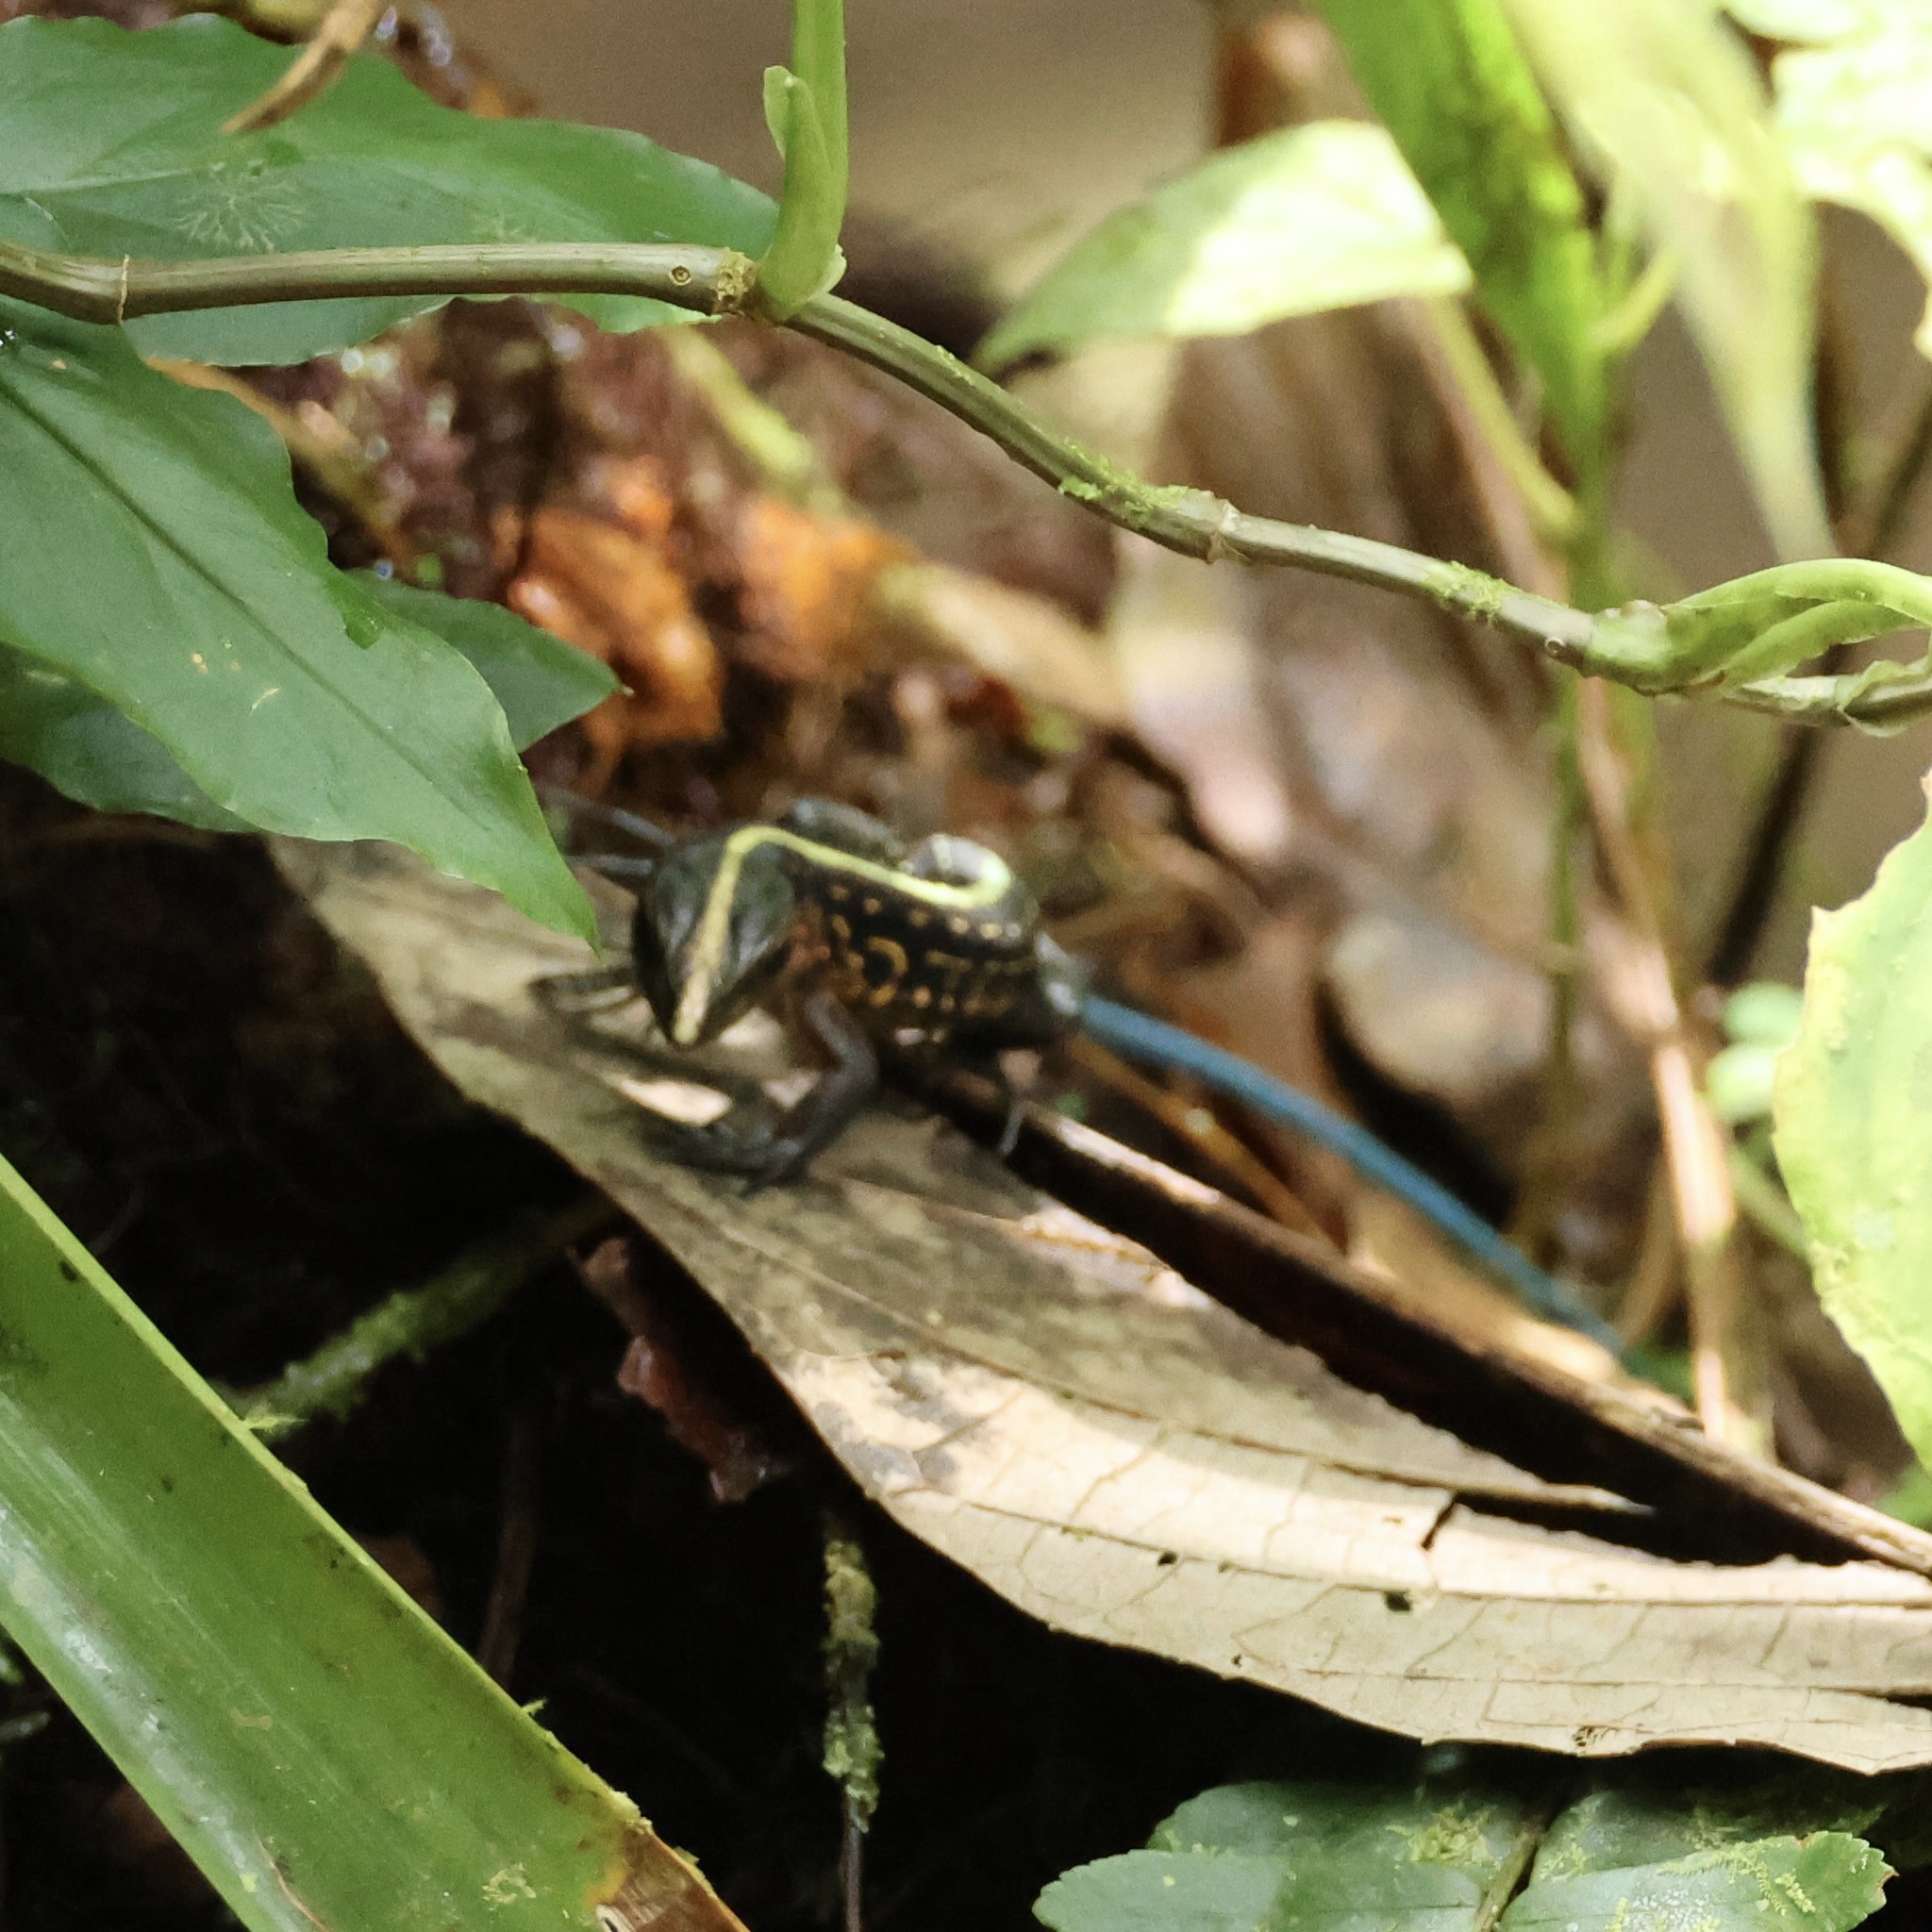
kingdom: Animalia
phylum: Chordata
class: Squamata
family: Teiidae
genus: Holcosus
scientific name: Holcosus festivus
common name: Middle american ameiva
